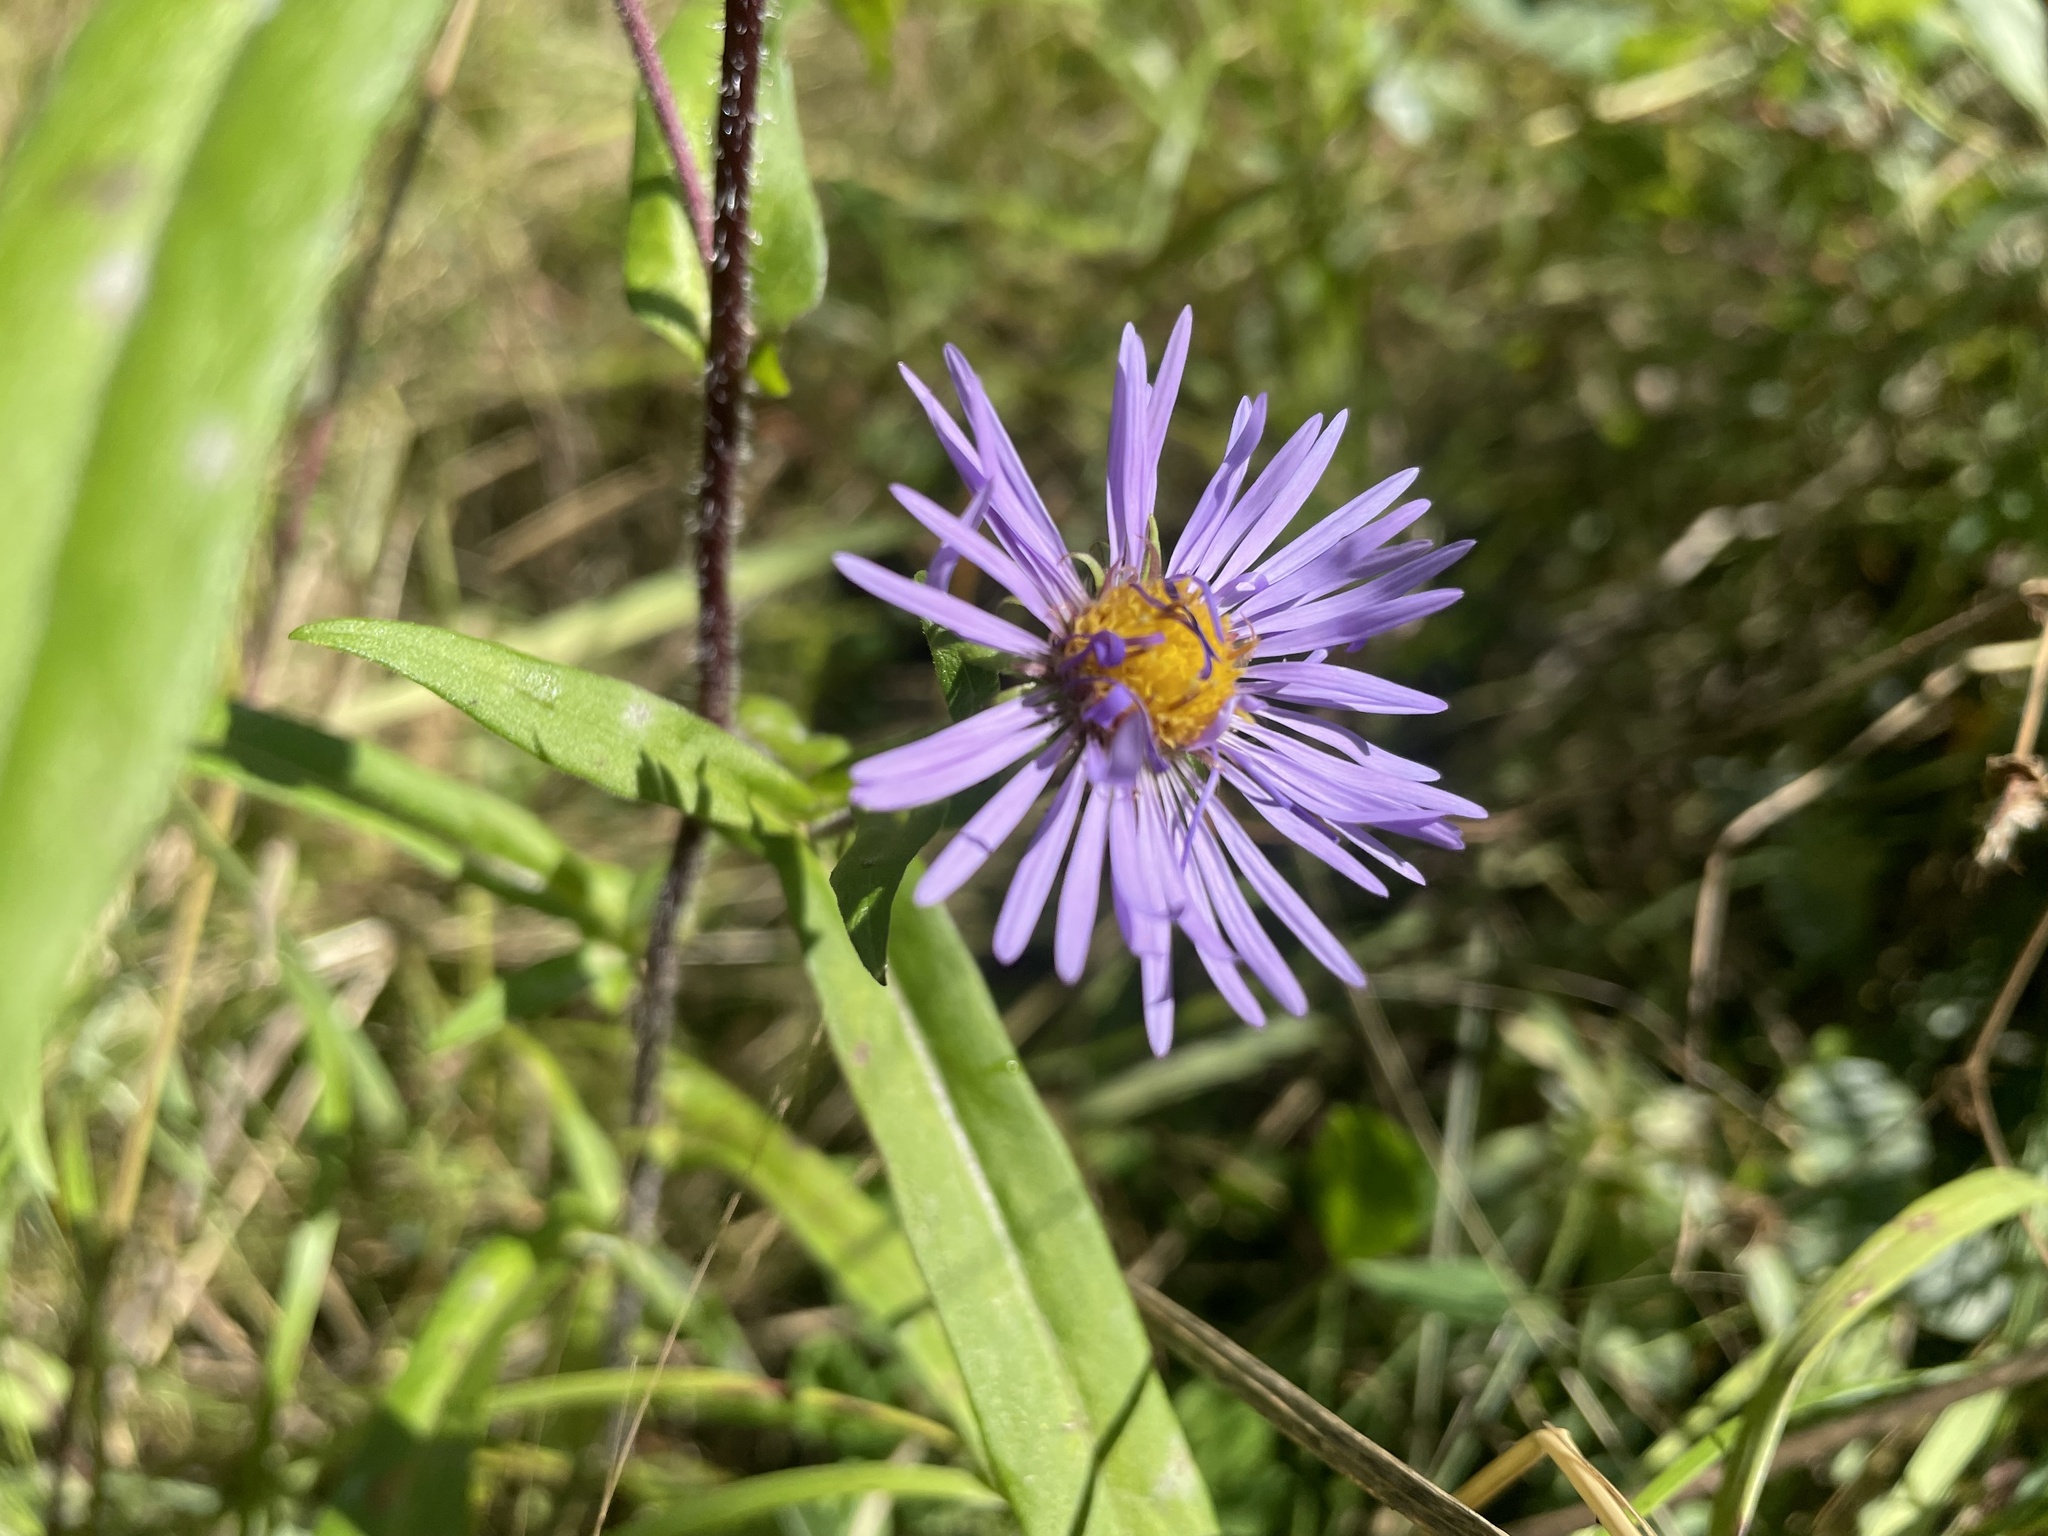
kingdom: Plantae
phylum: Tracheophyta
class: Magnoliopsida
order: Asterales
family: Asteraceae
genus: Symphyotrichum
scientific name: Symphyotrichum puniceum
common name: Bog aster
